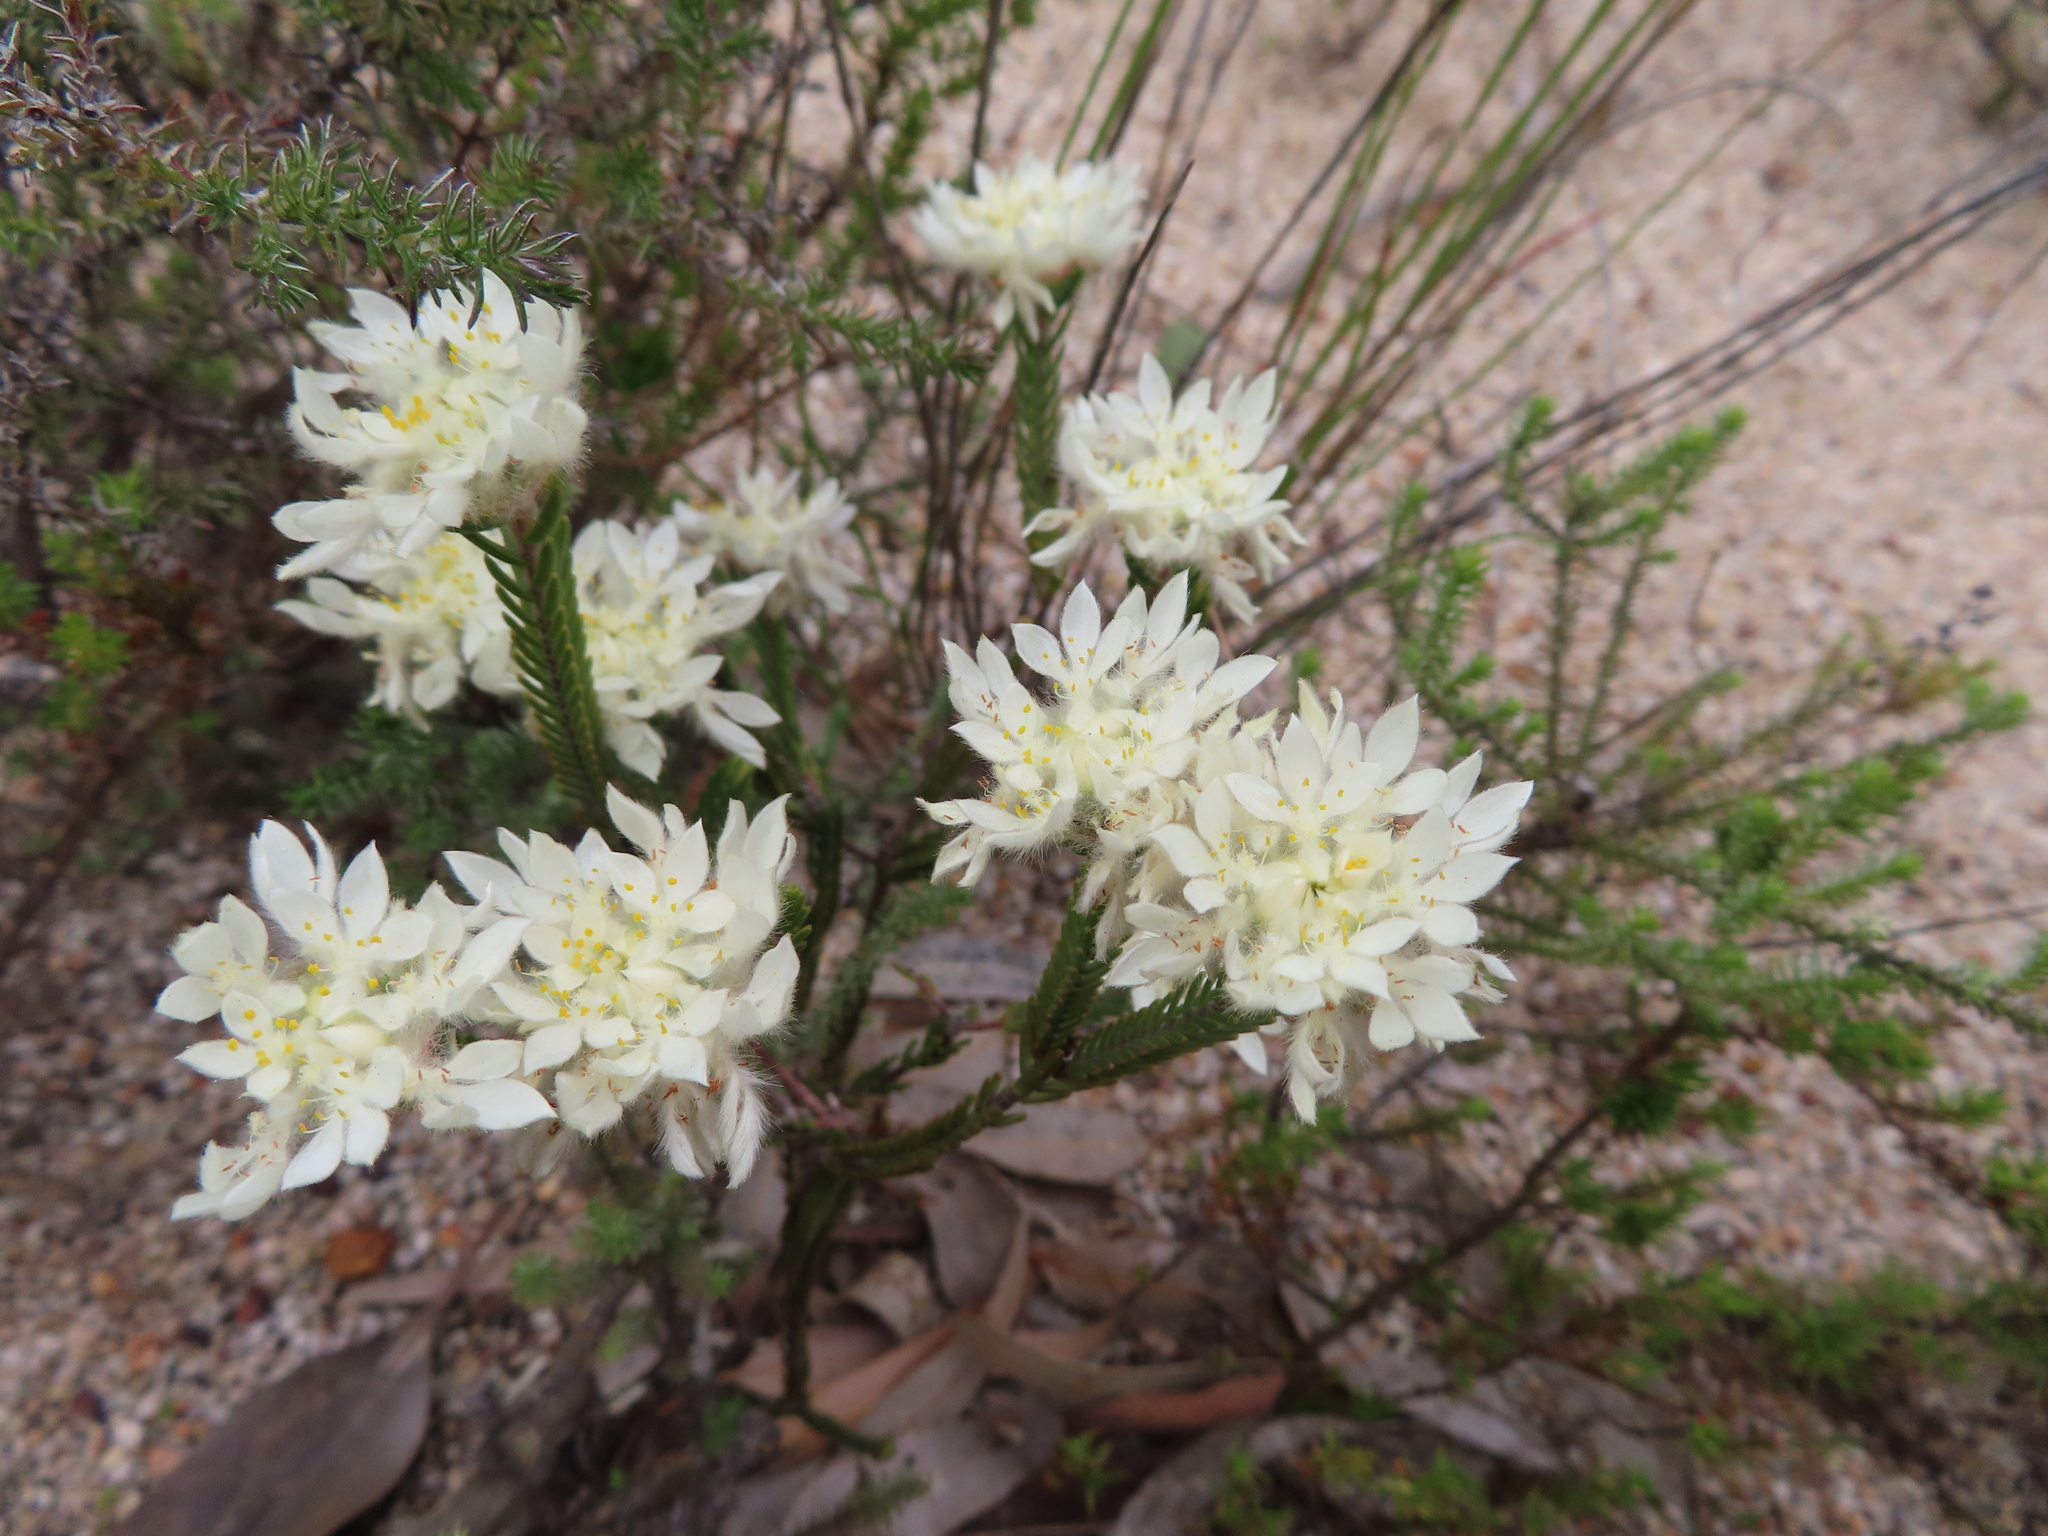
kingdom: Plantae
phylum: Tracheophyta
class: Magnoliopsida
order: Malvales
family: Thymelaeaceae
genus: Lachnaea
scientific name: Lachnaea eriocephala
